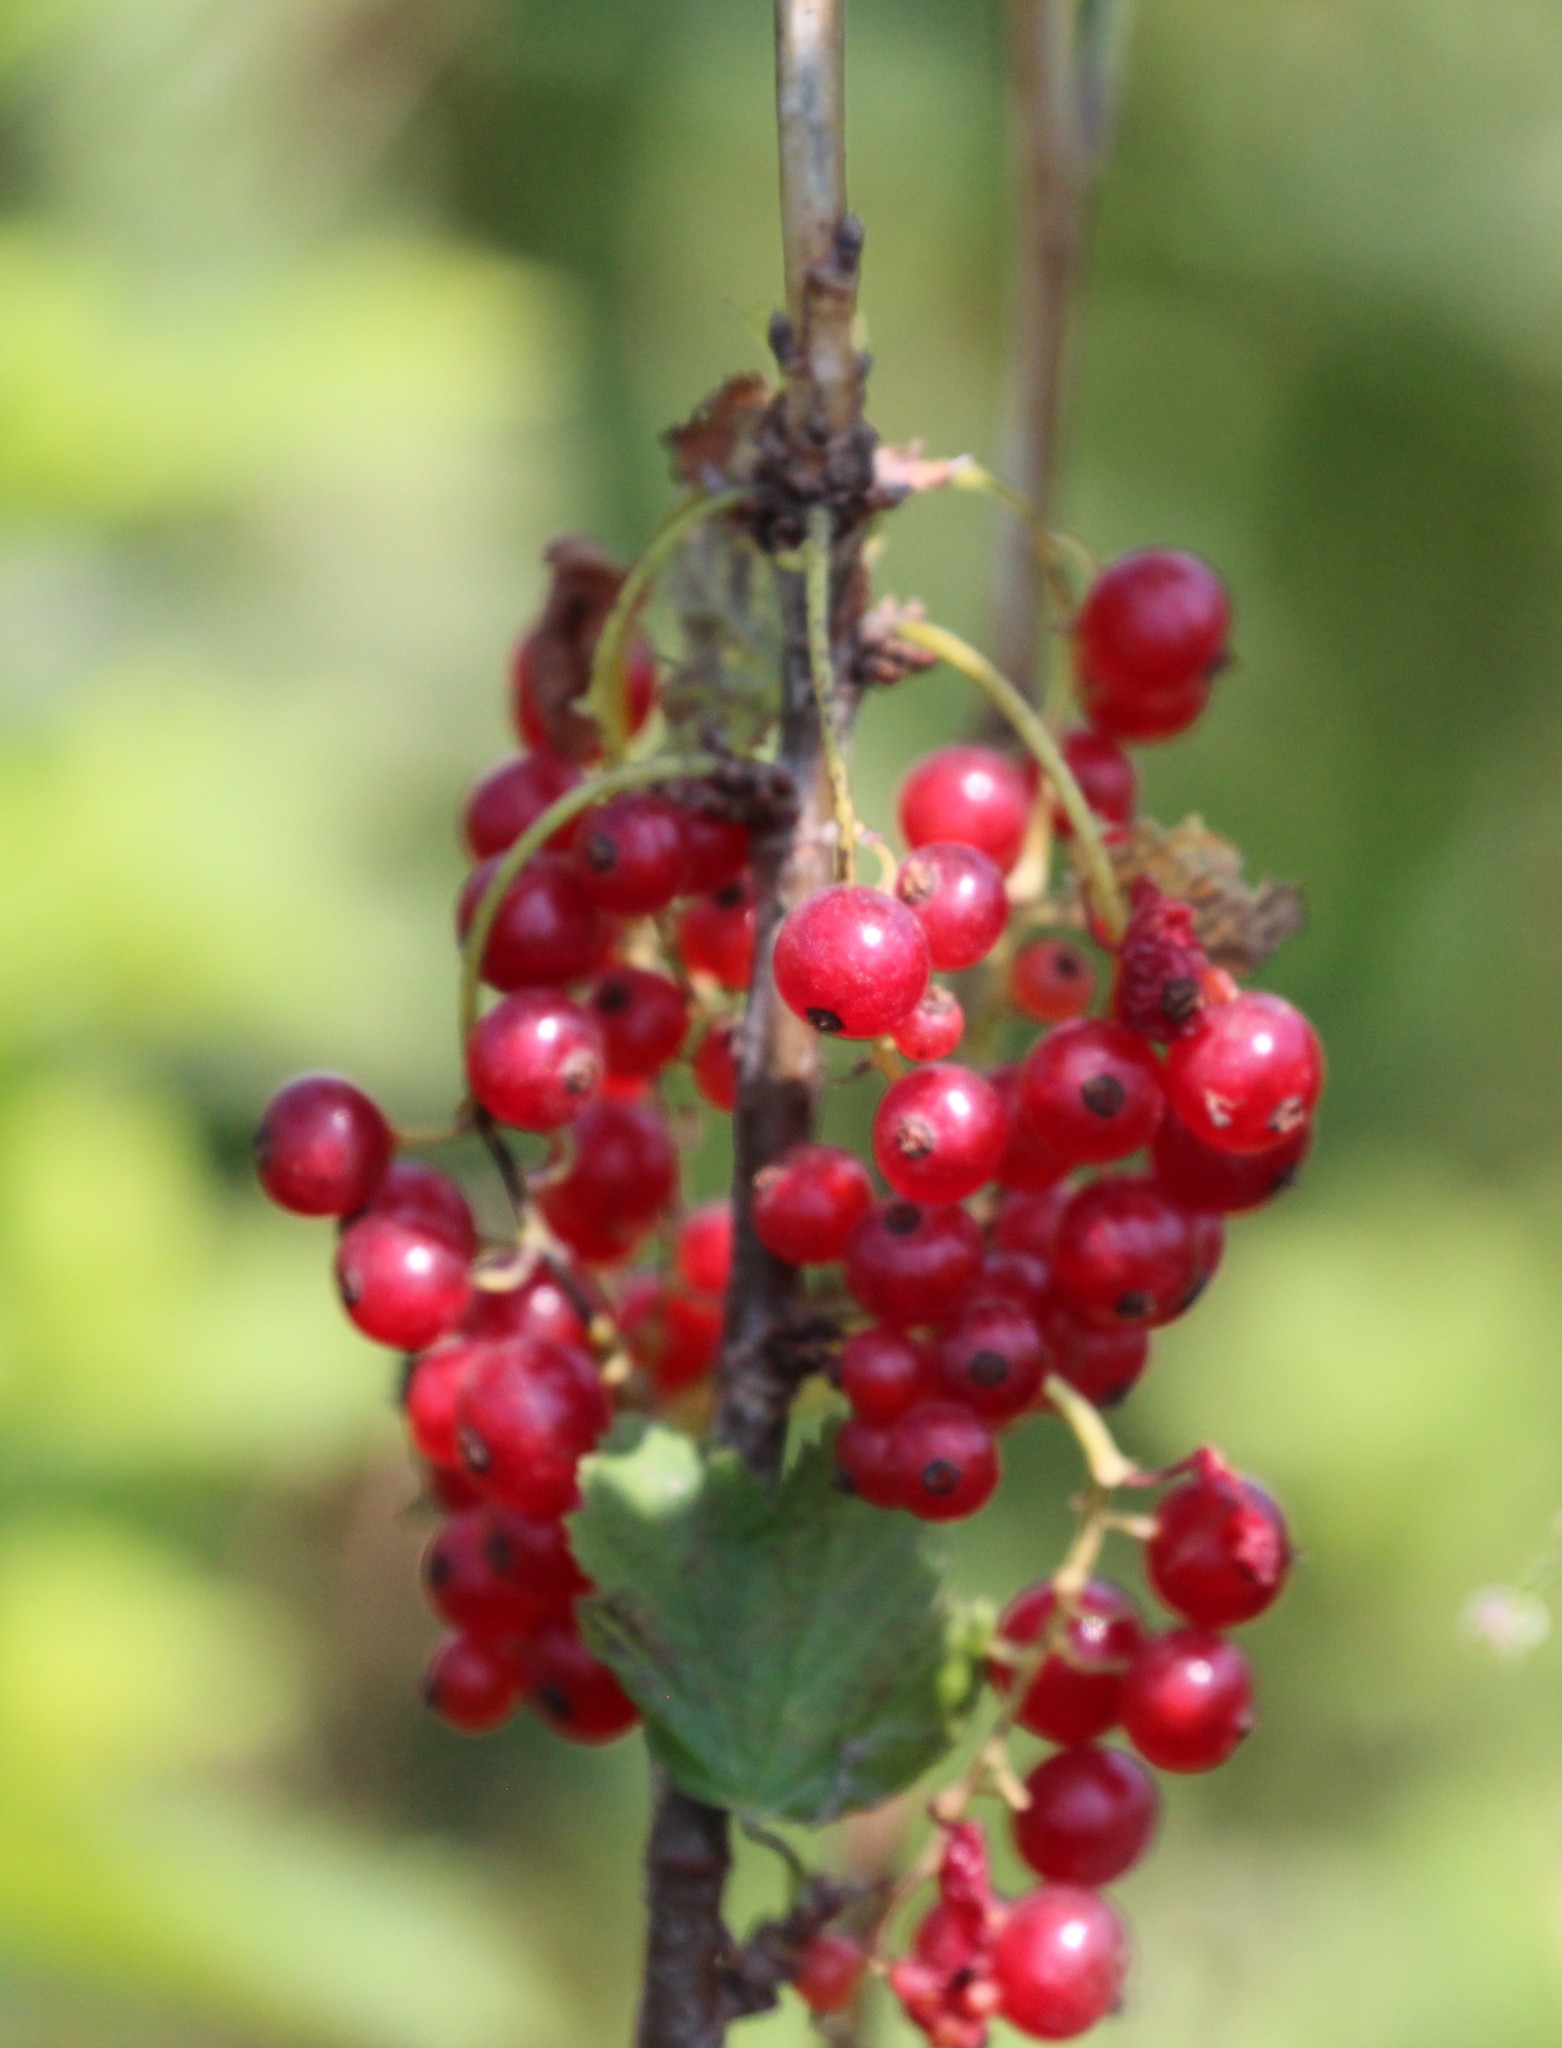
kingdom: Plantae
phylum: Tracheophyta
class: Magnoliopsida
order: Saxifragales
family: Grossulariaceae
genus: Ribes
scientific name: Ribes rubrum
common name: Red currant
